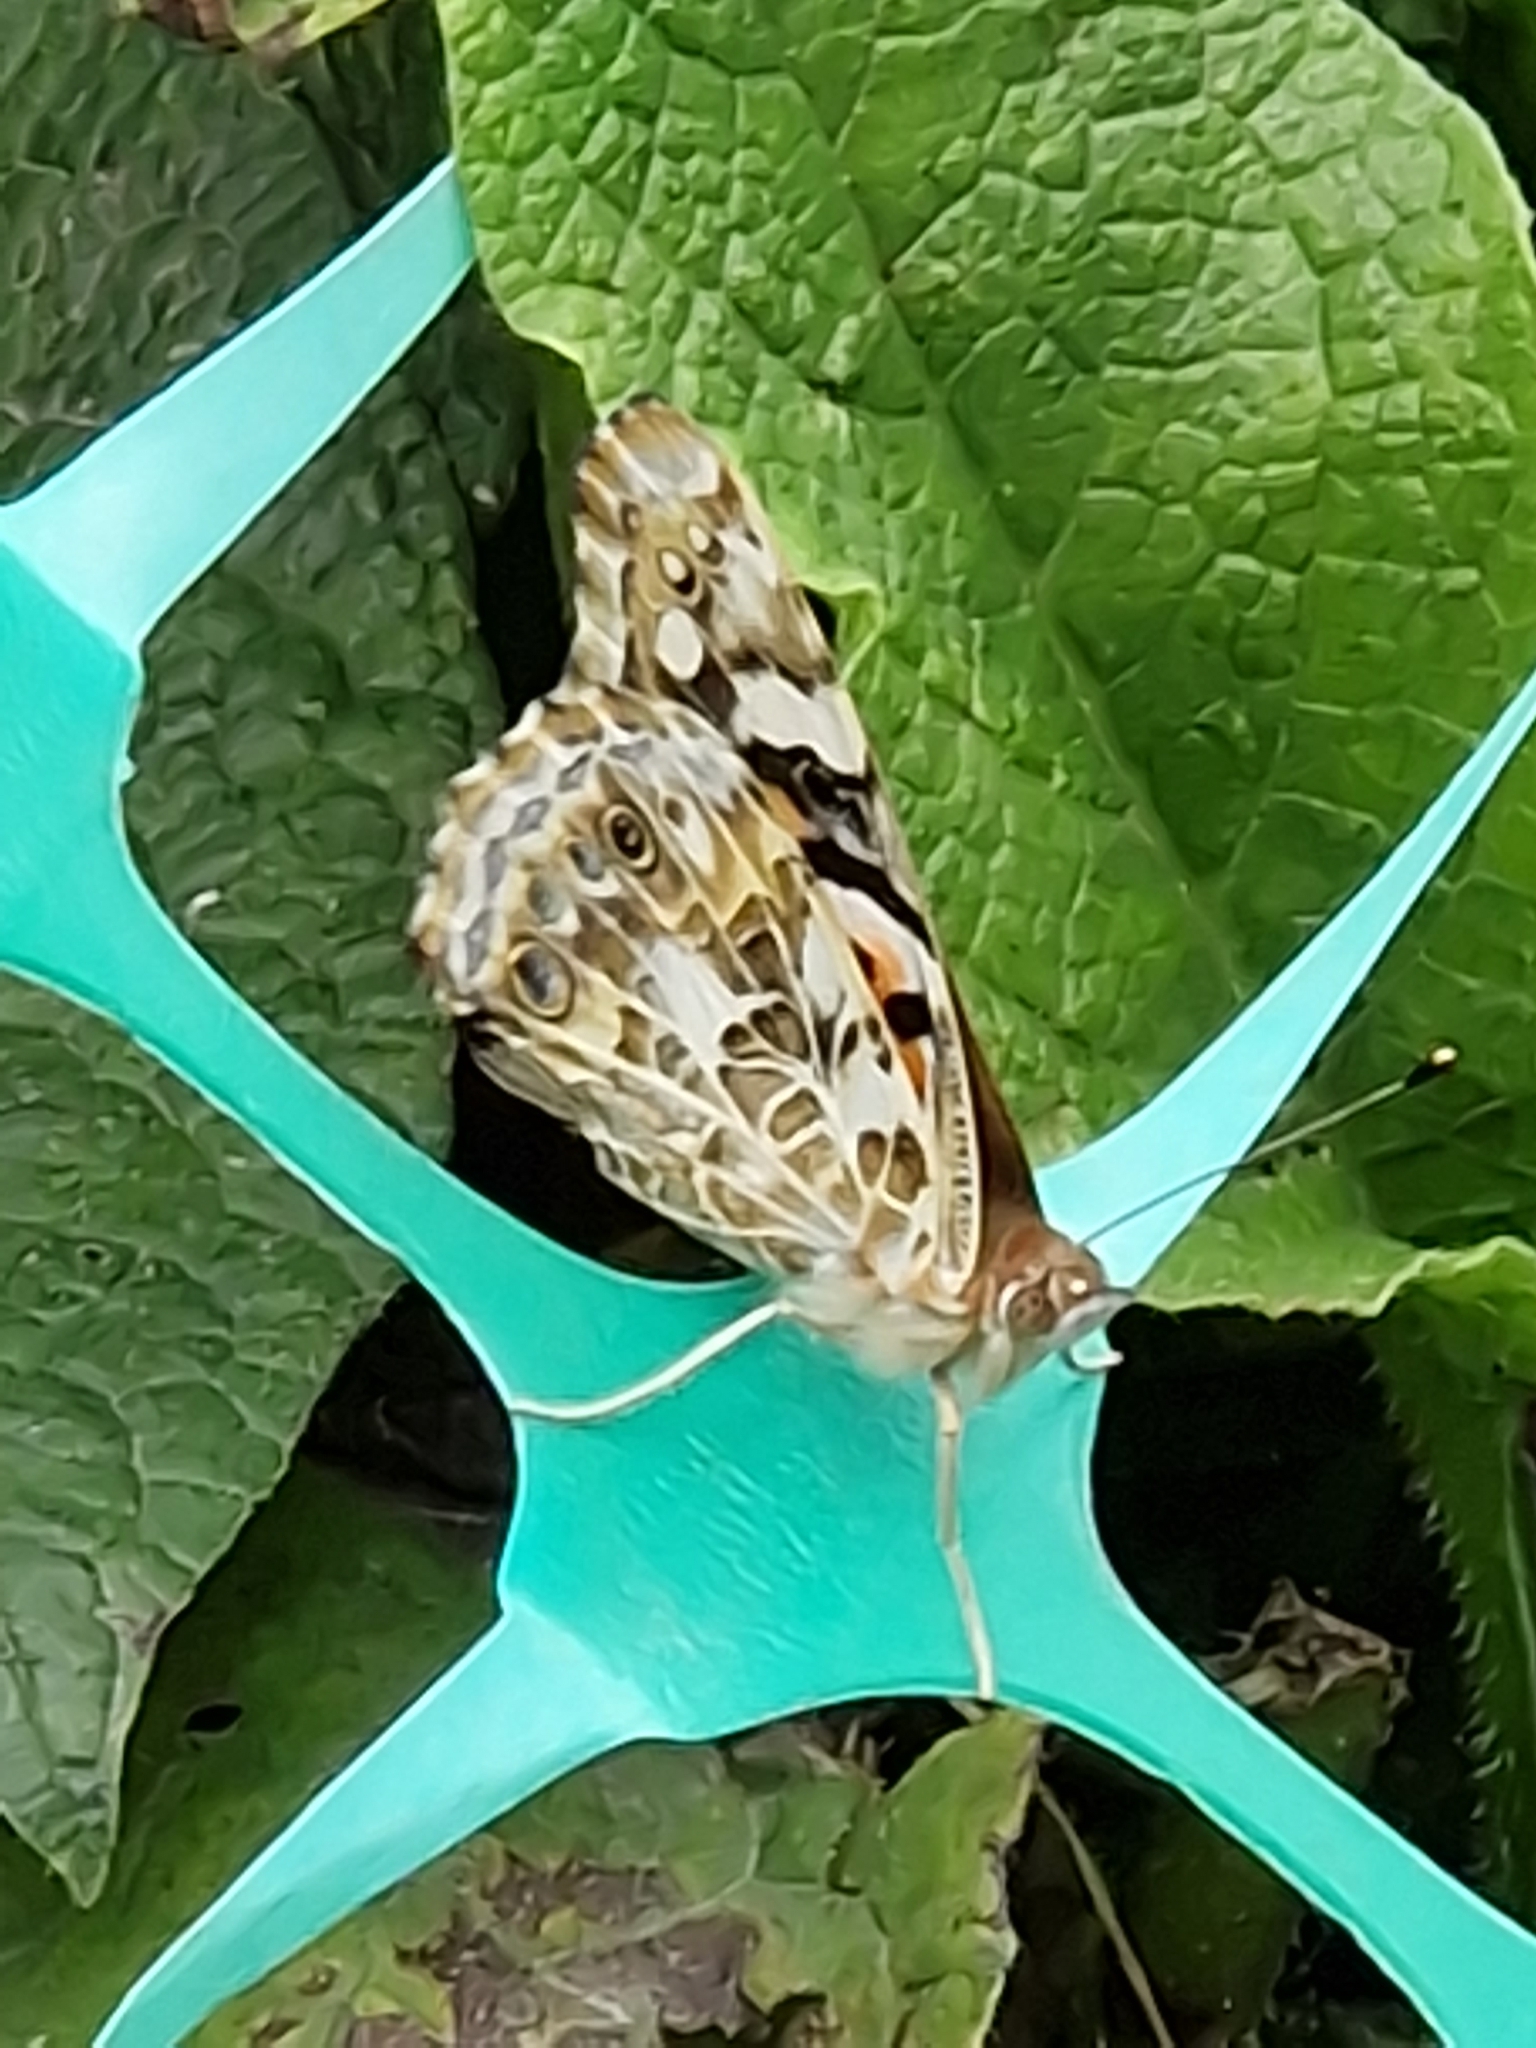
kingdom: Animalia
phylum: Arthropoda
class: Insecta
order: Lepidoptera
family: Nymphalidae
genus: Vanessa
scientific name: Vanessa cardui
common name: Painted lady
